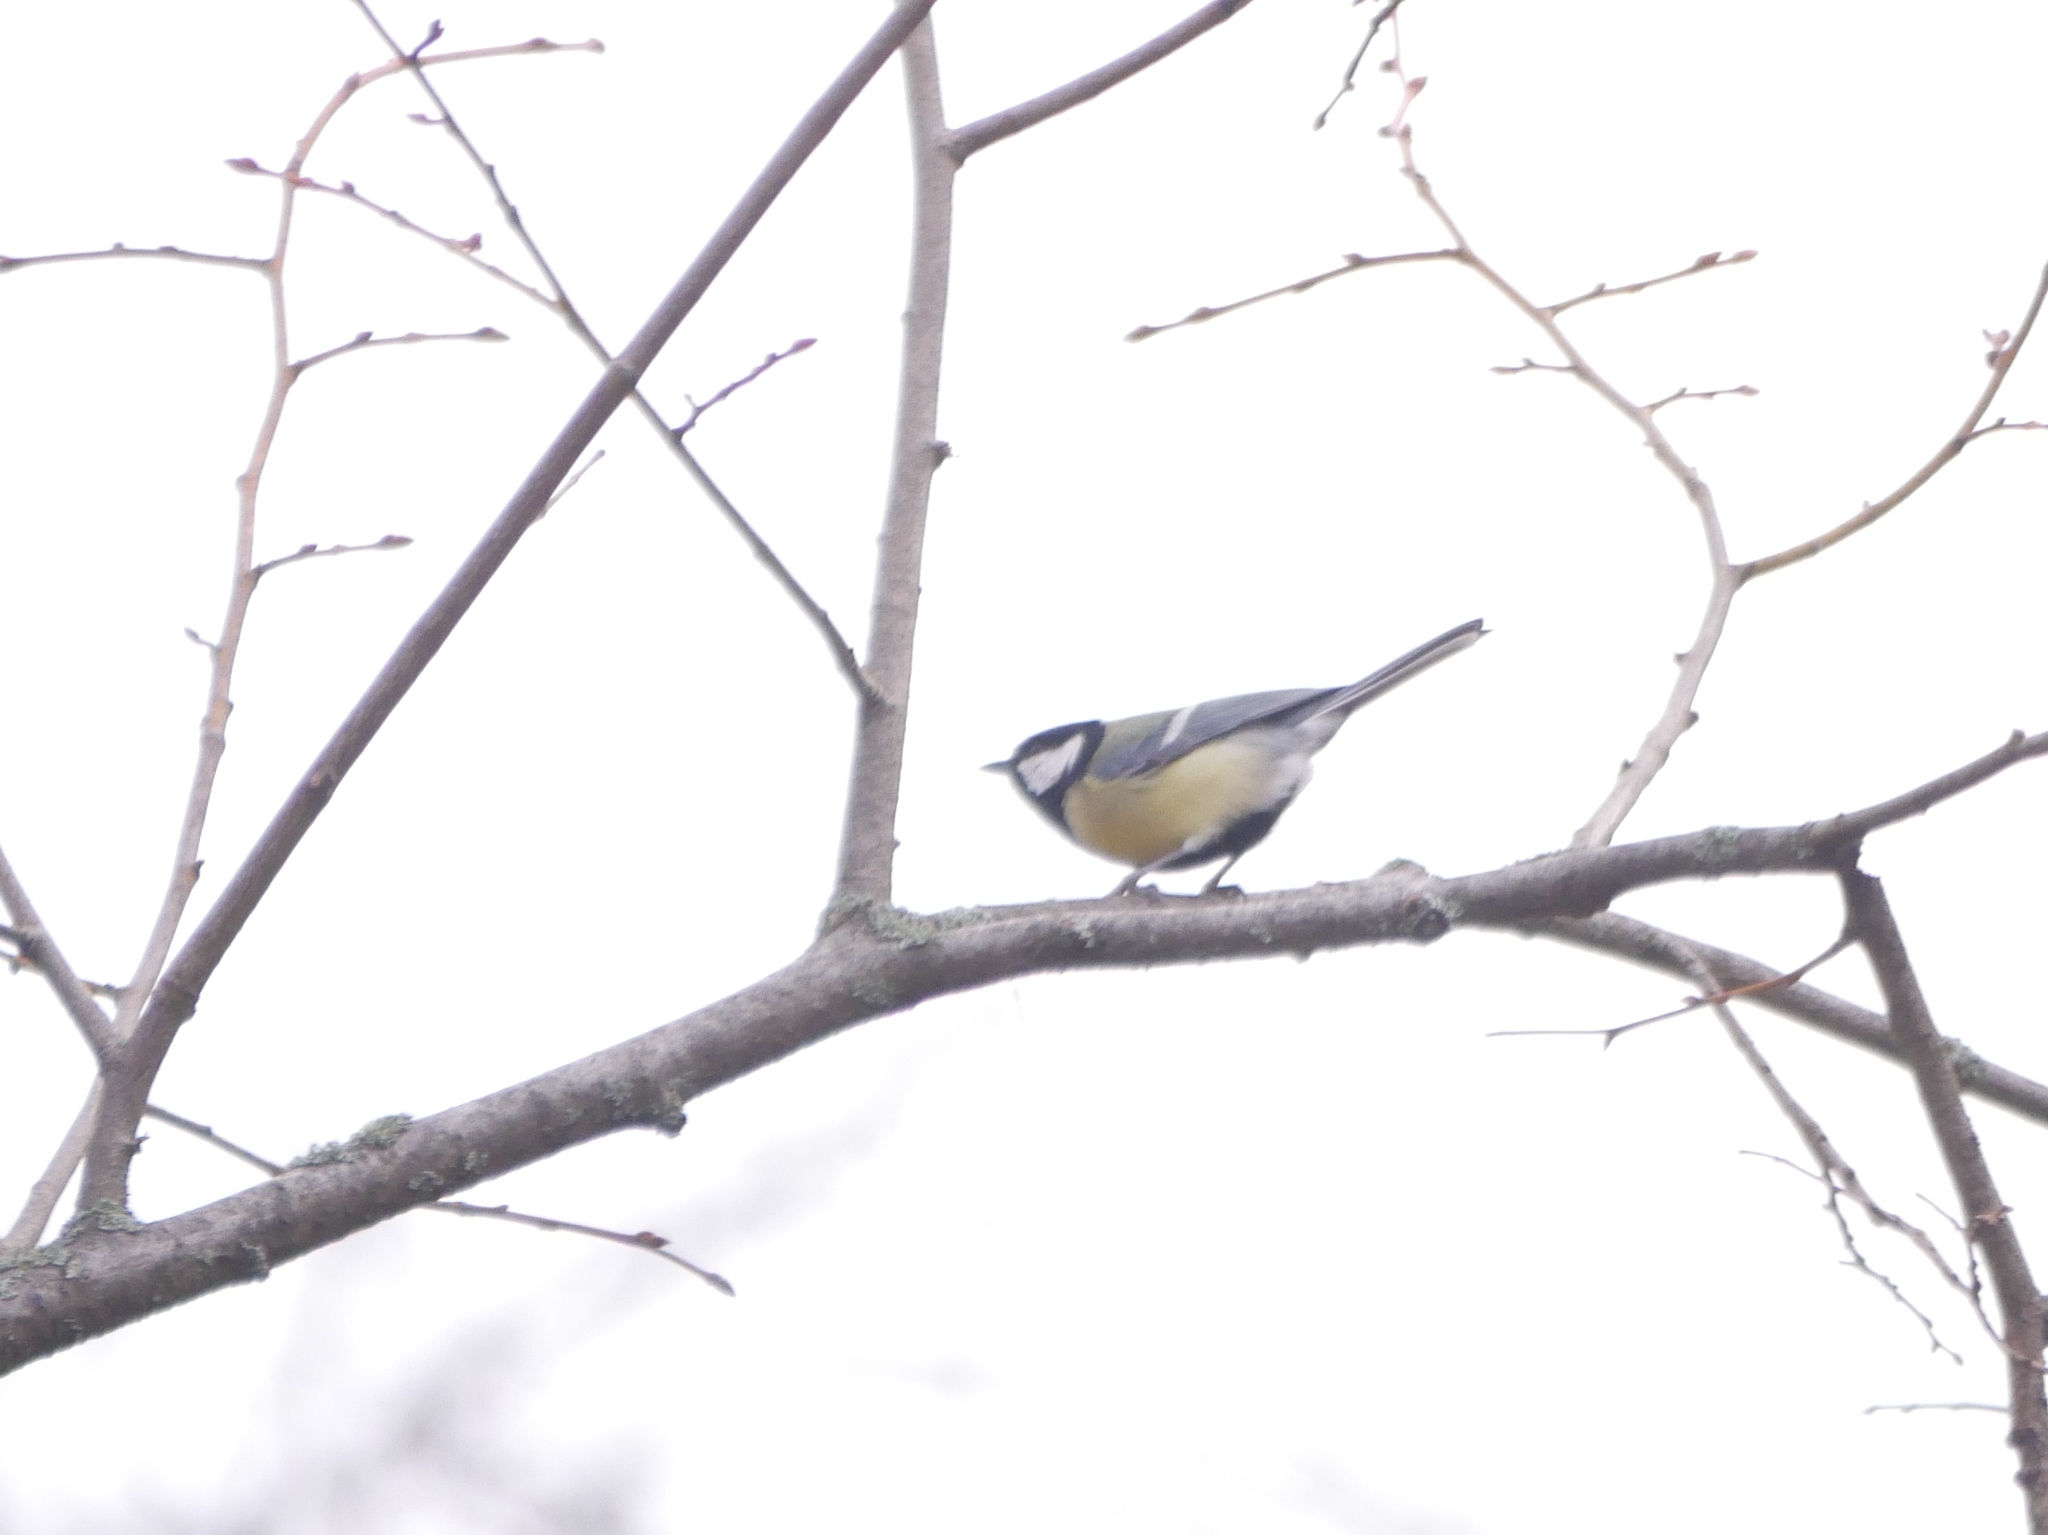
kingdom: Animalia
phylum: Chordata
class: Aves
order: Passeriformes
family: Paridae
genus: Parus
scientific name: Parus major
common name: Great tit
